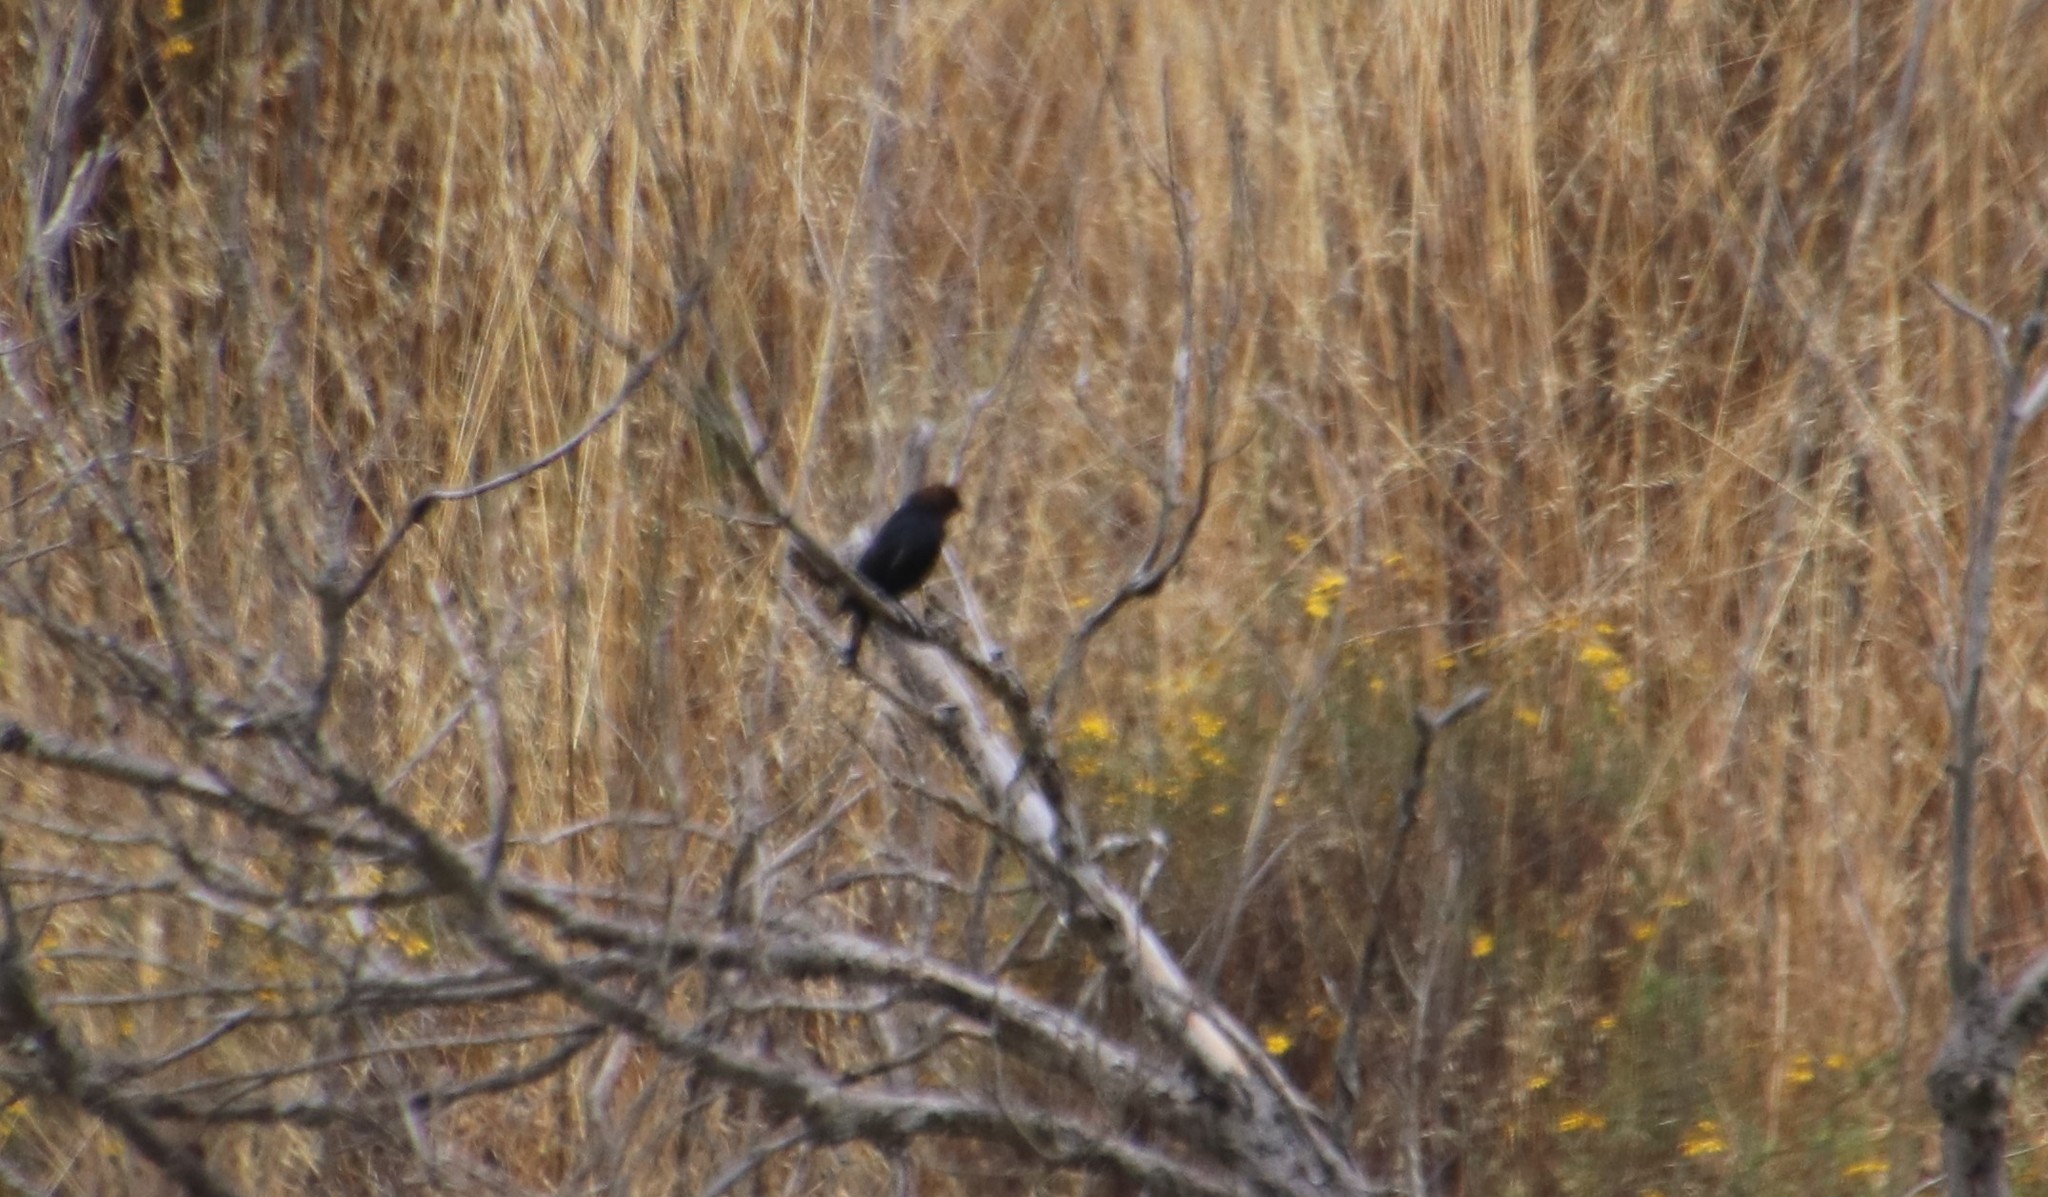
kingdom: Animalia
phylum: Chordata
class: Aves
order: Passeriformes
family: Icteridae
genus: Molothrus
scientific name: Molothrus ater
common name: Brown-headed cowbird
